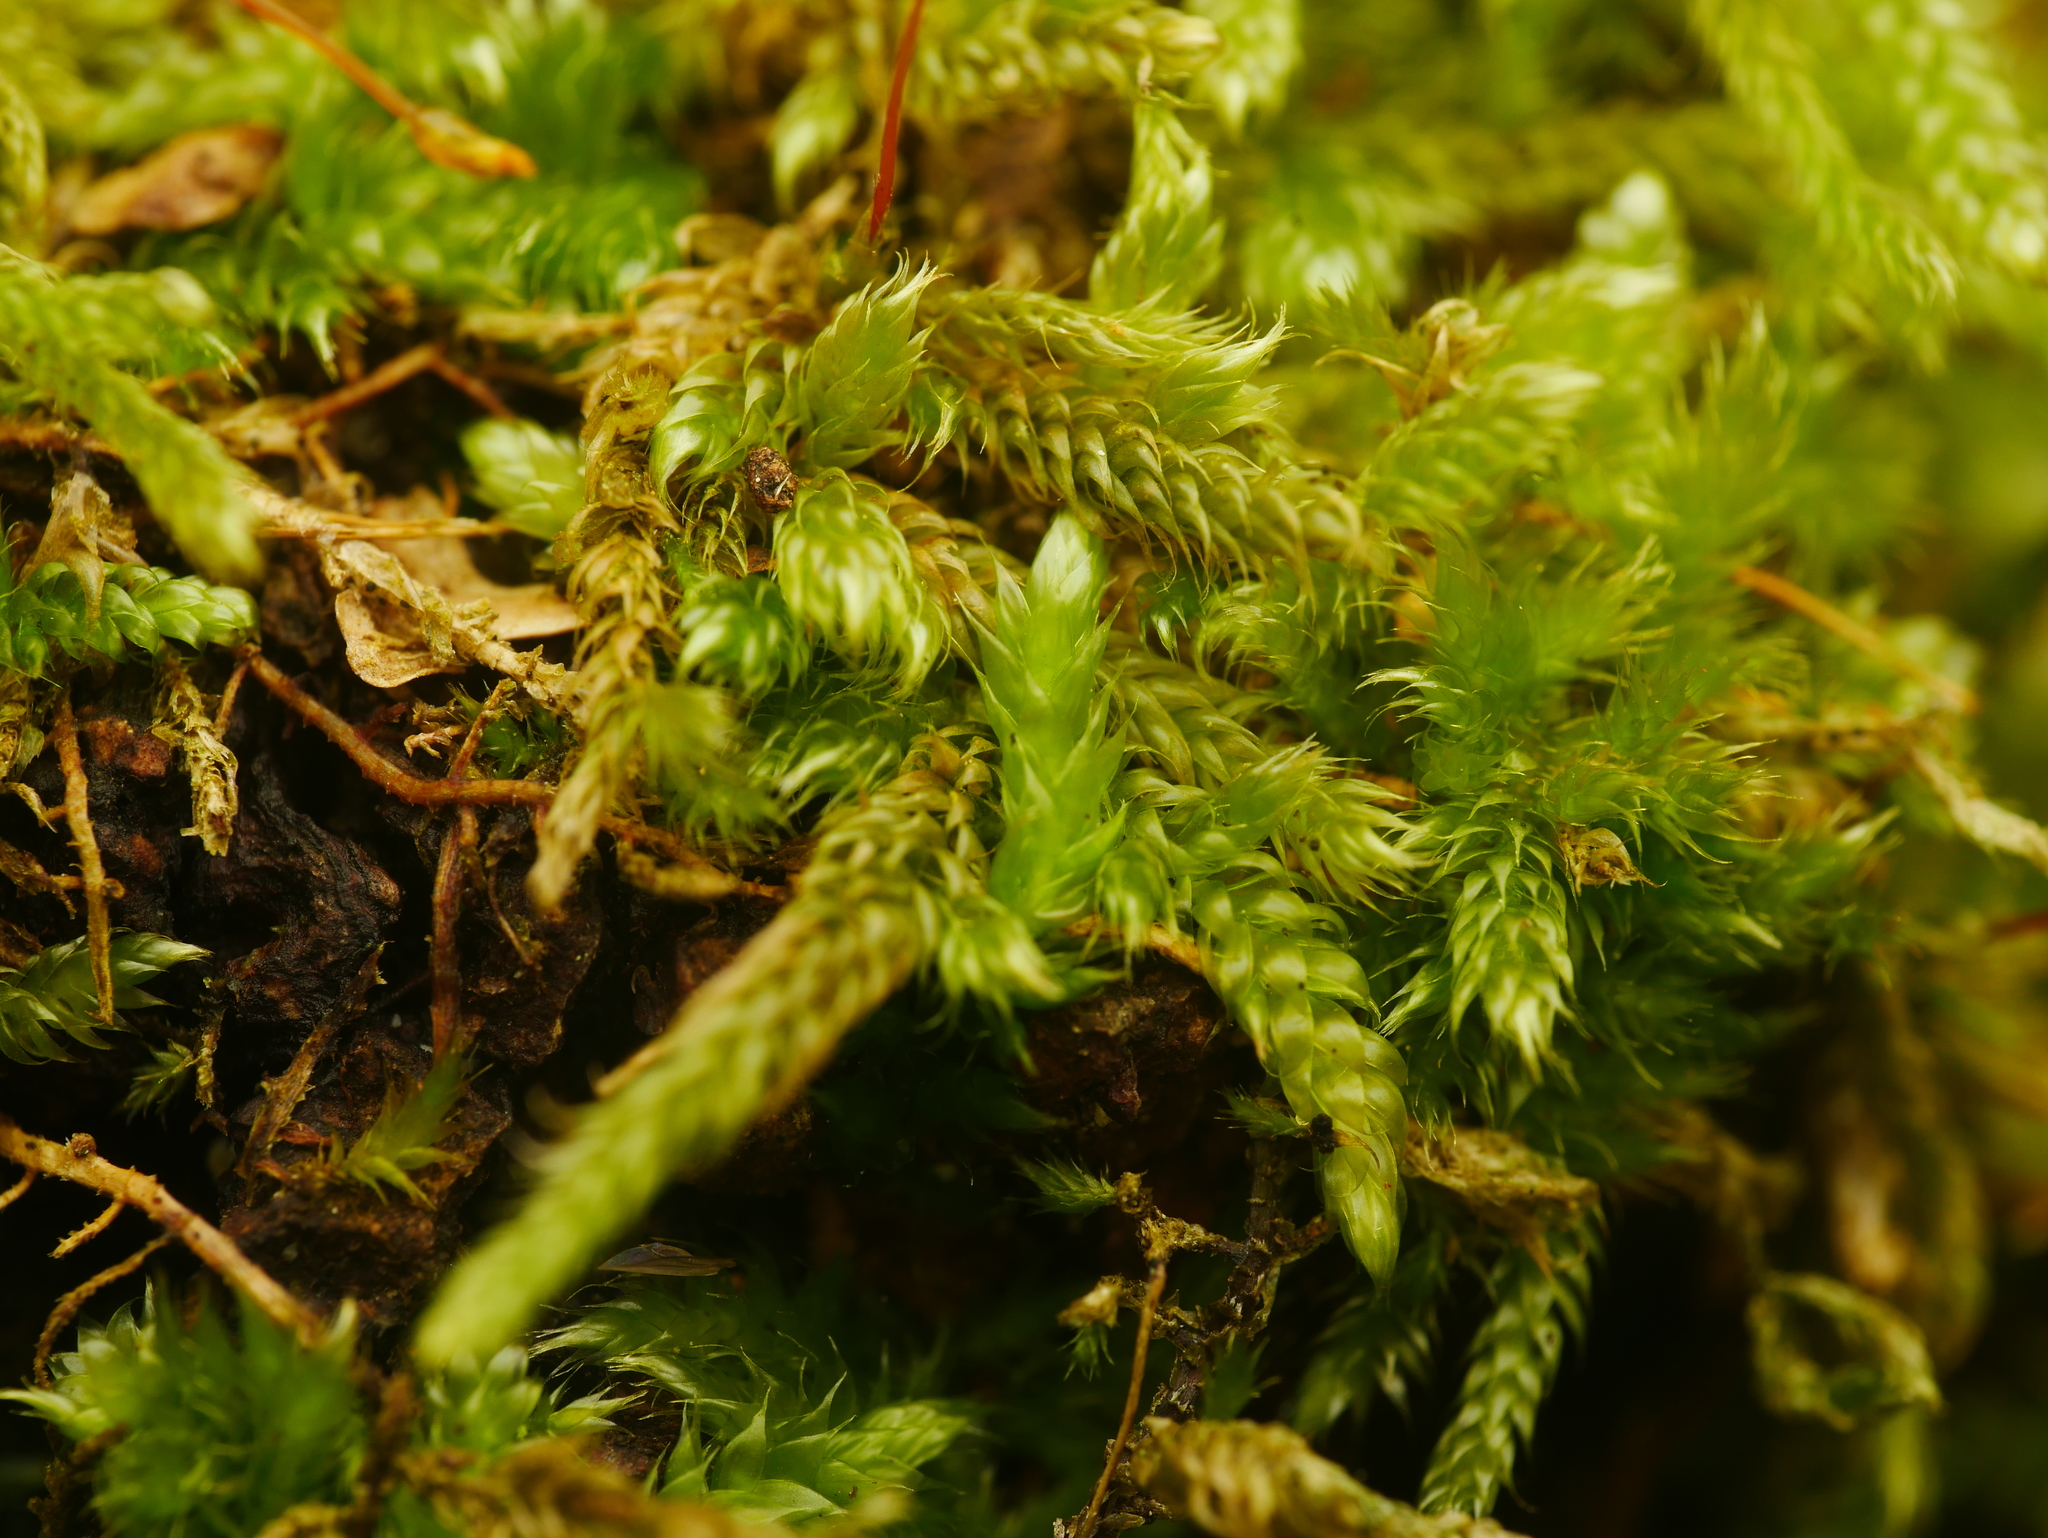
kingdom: Plantae
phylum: Bryophyta
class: Bryopsida
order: Hypnales
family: Hypnaceae
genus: Hypnum
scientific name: Hypnum cupressiforme
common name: Cypress-leaved plait-moss
